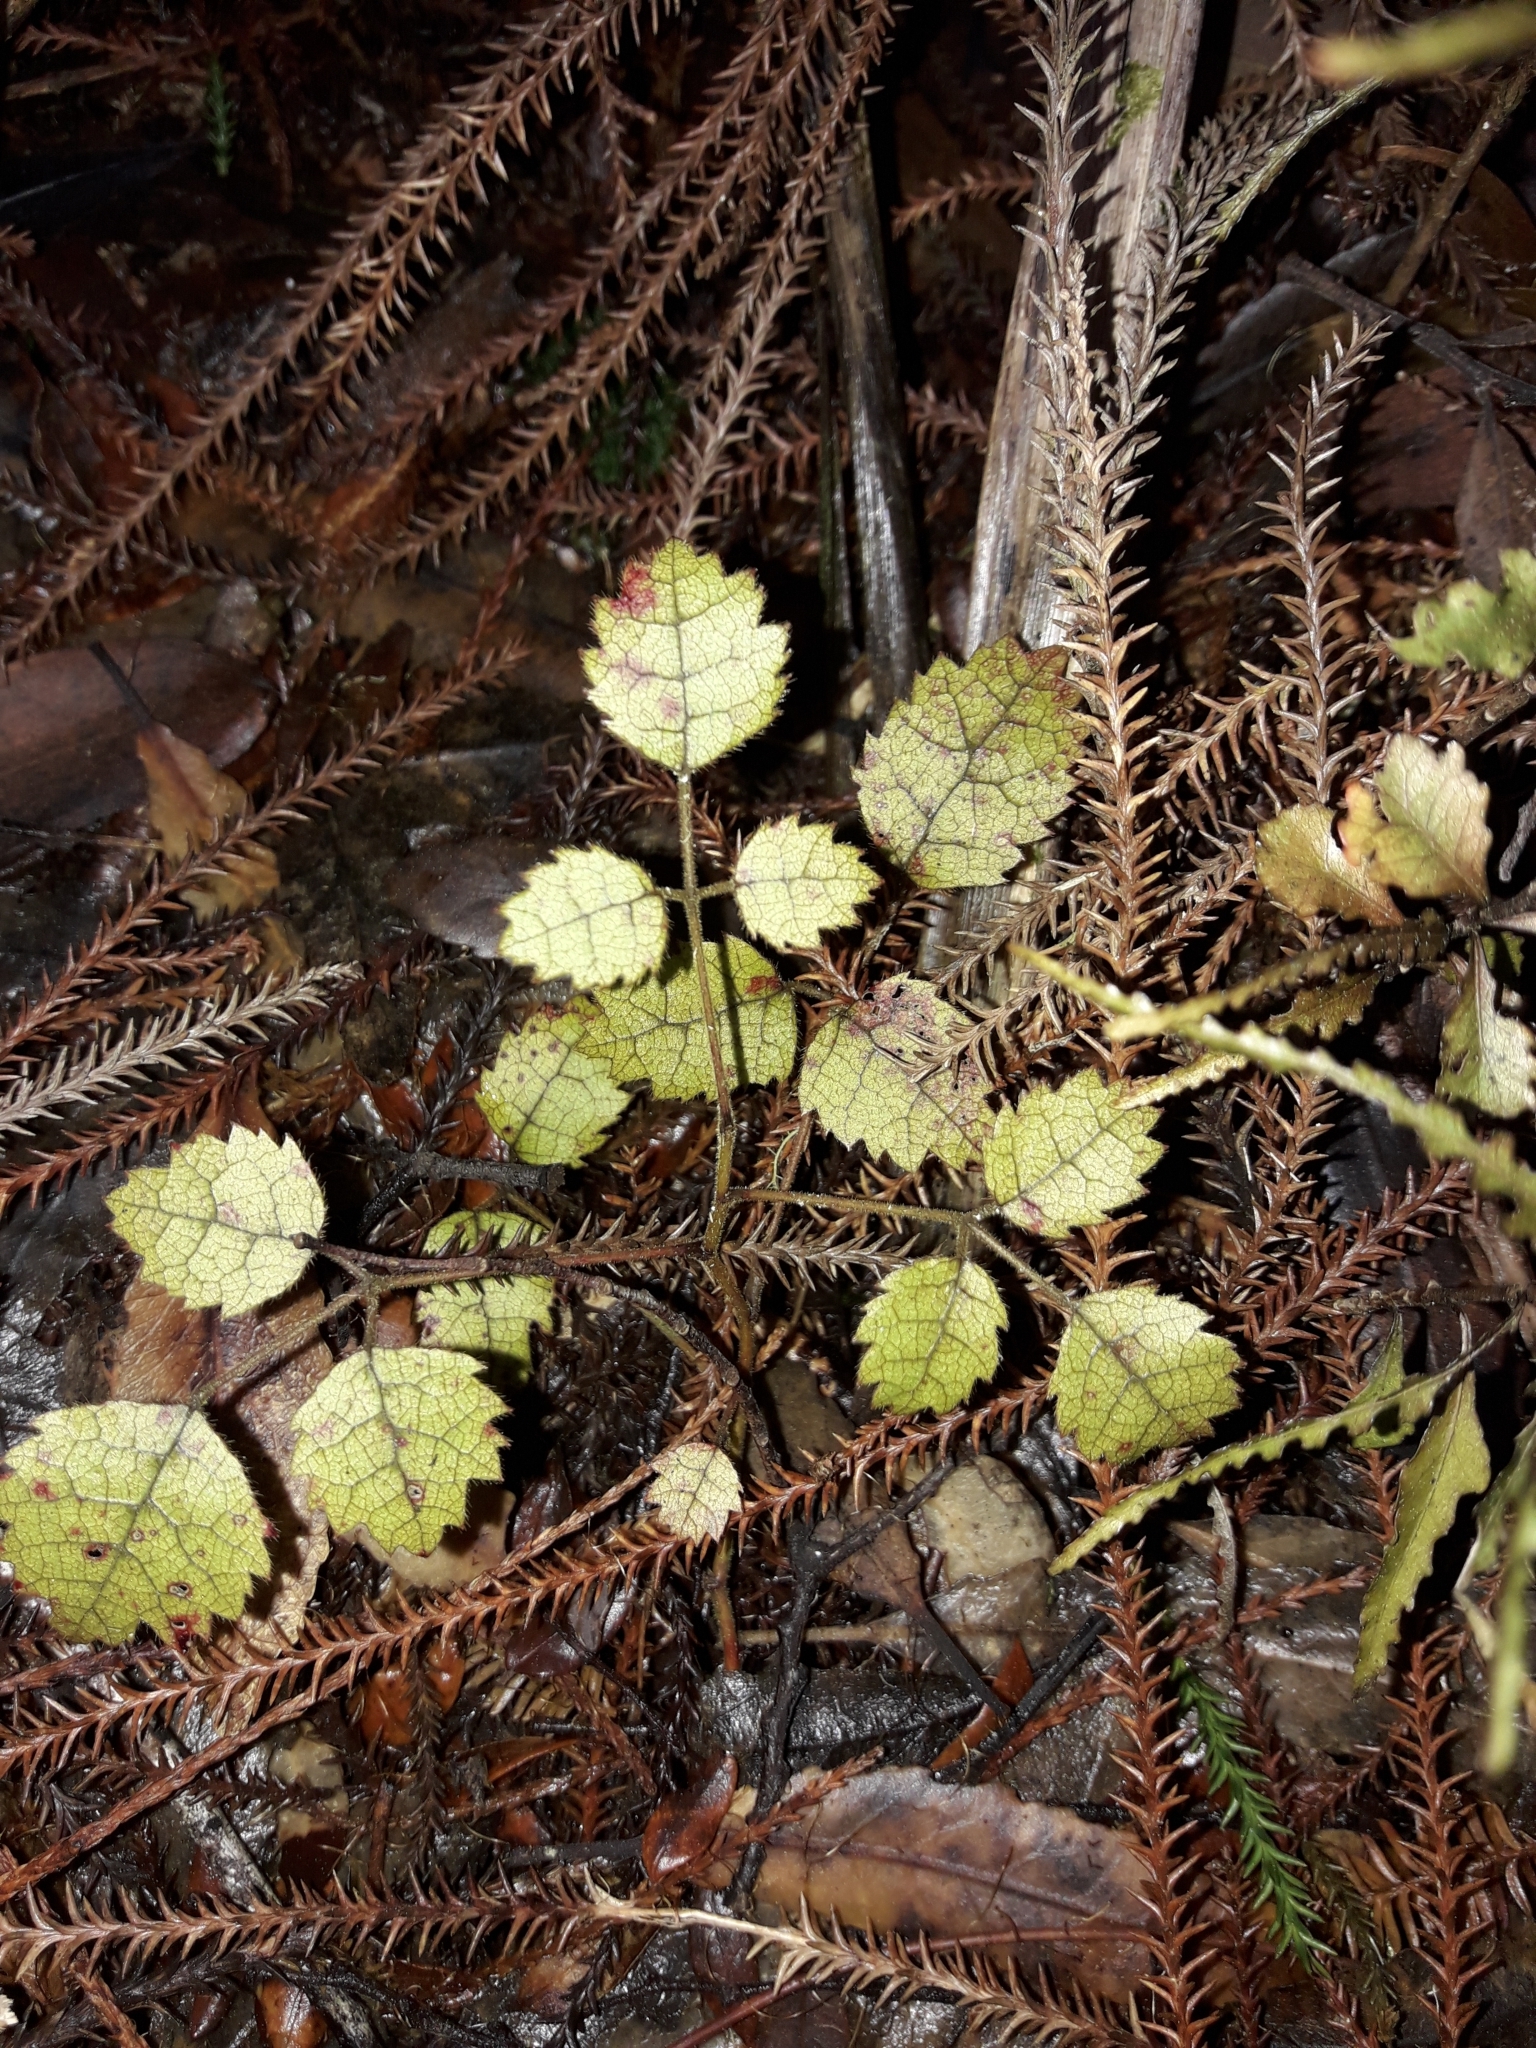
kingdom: Plantae
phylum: Tracheophyta
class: Magnoliopsida
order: Rosales
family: Rosaceae
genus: Rubus
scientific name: Rubus australis
